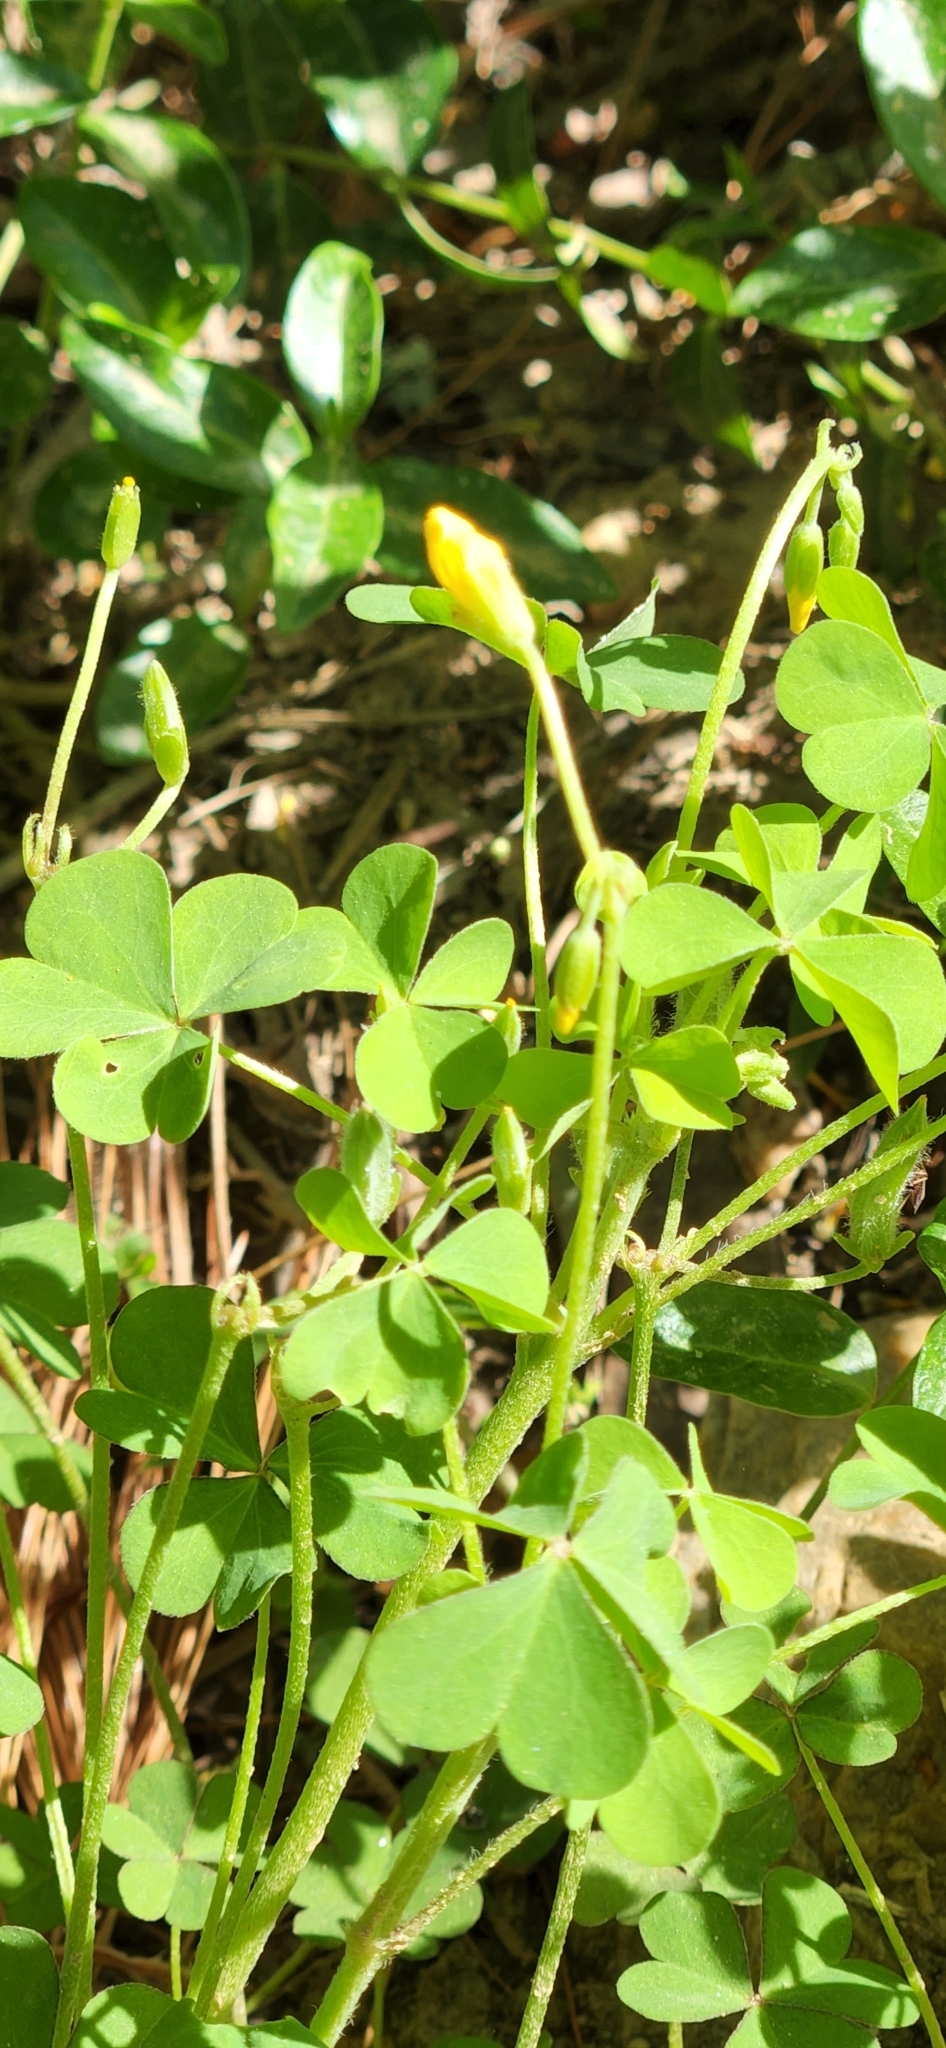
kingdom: Plantae
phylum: Tracheophyta
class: Magnoliopsida
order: Oxalidales
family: Oxalidaceae
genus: Oxalis
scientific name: Oxalis dillenii
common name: Sussex yellow-sorrel
